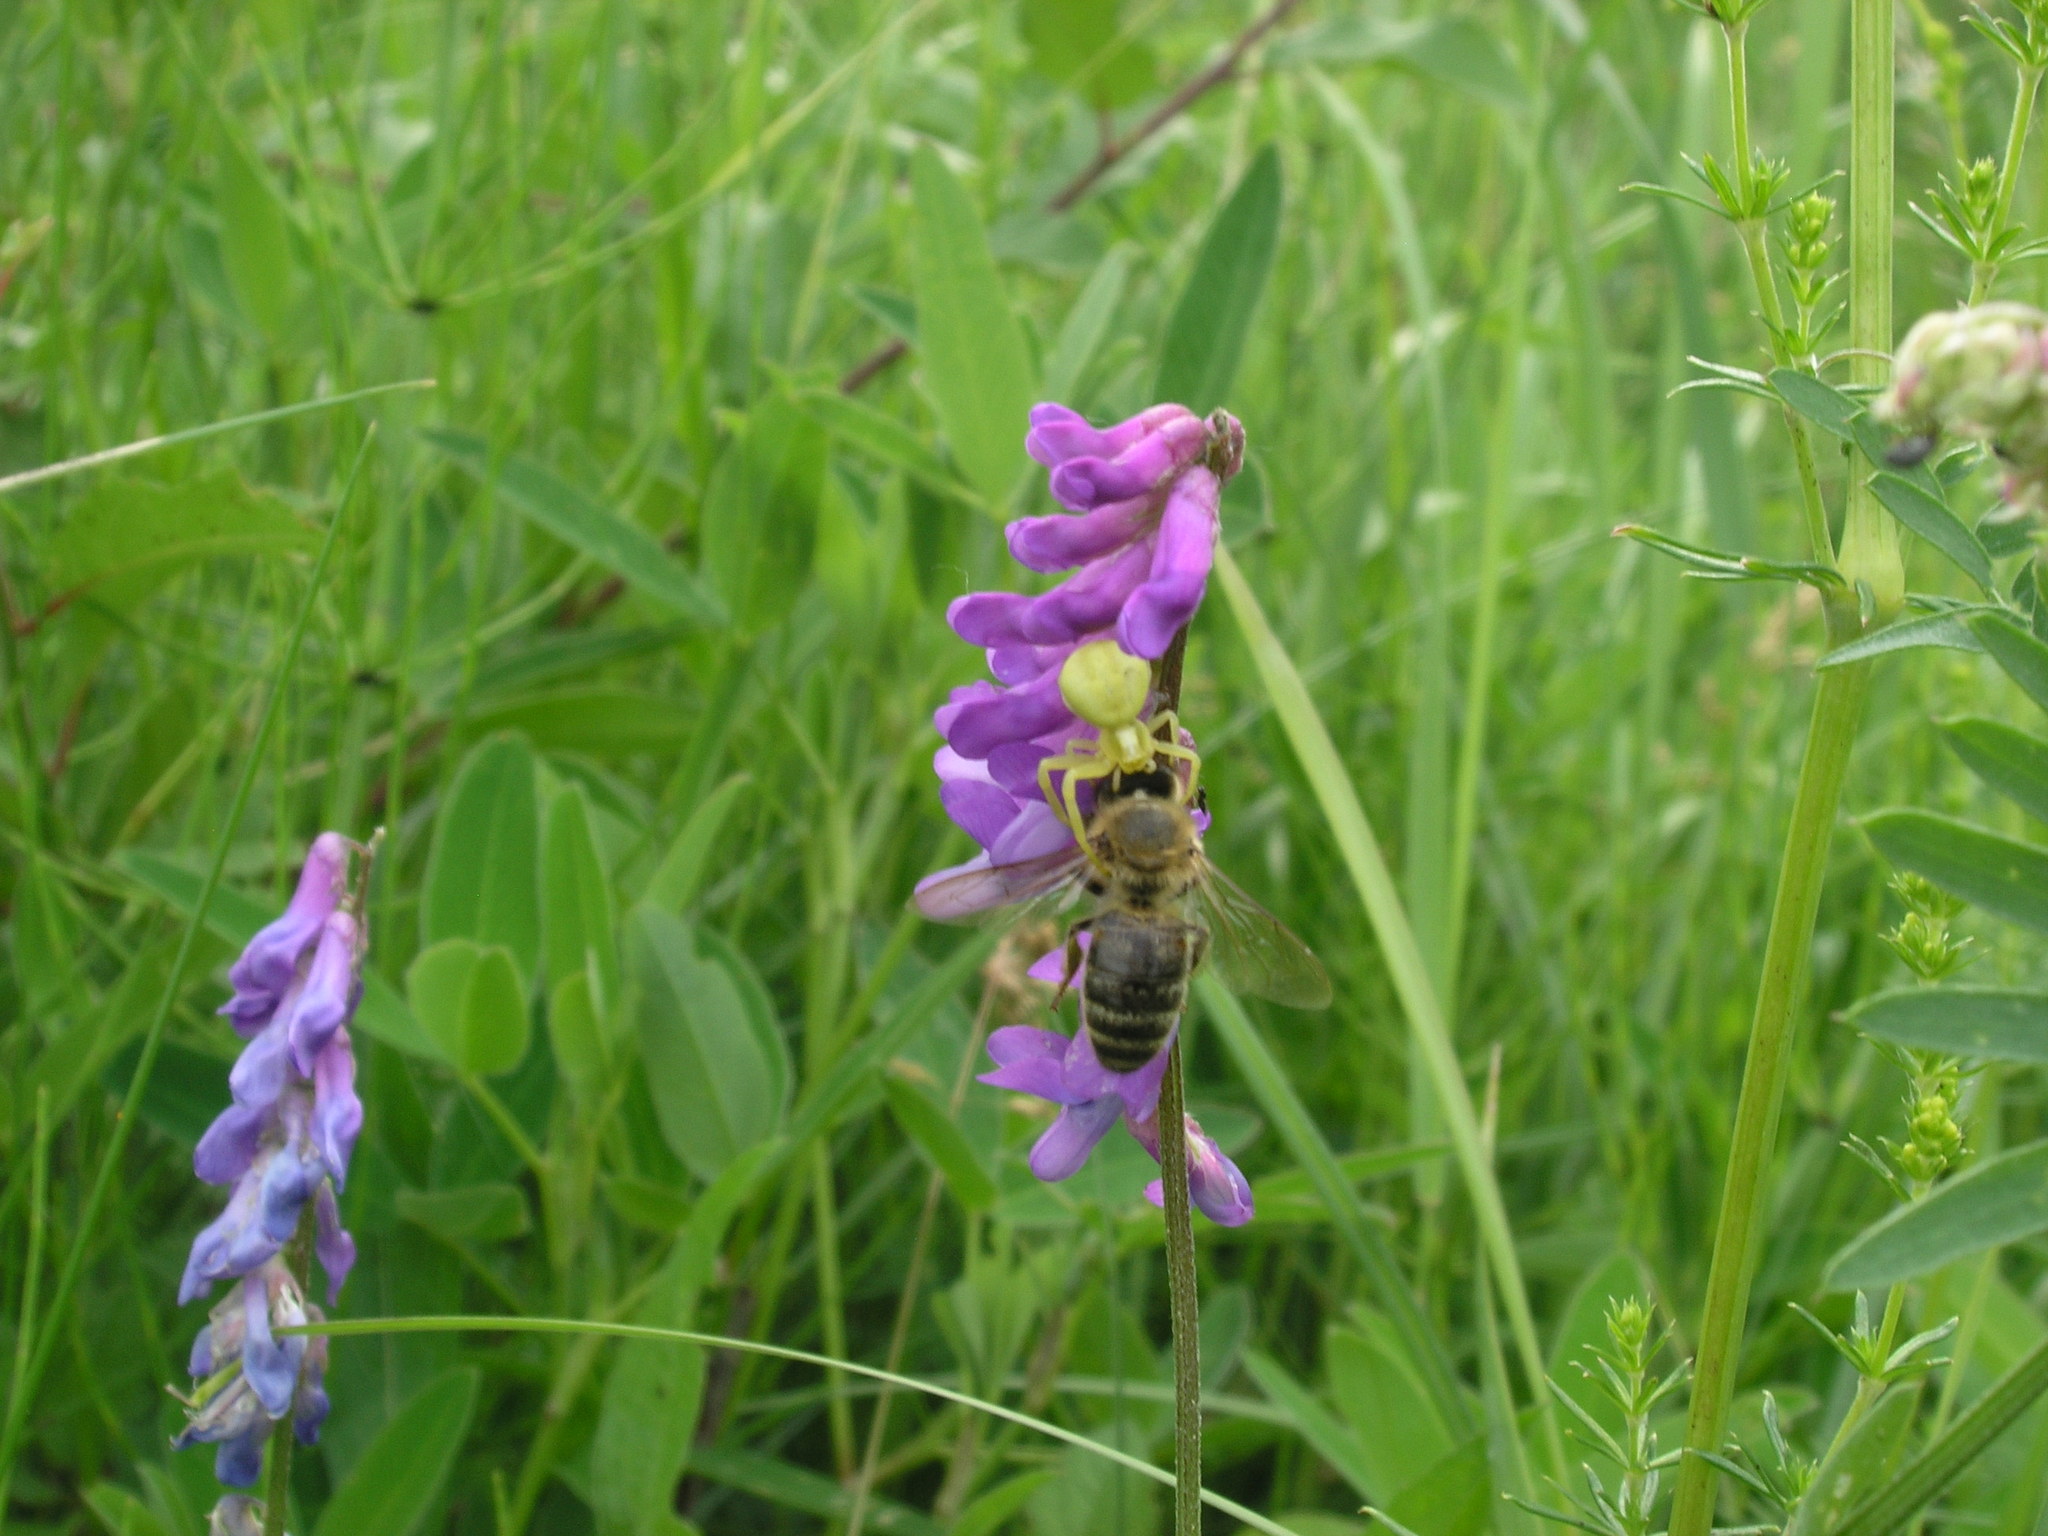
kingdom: Animalia
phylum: Arthropoda
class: Insecta
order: Hymenoptera
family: Apidae
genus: Apis
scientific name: Apis mellifera
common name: Honey bee
